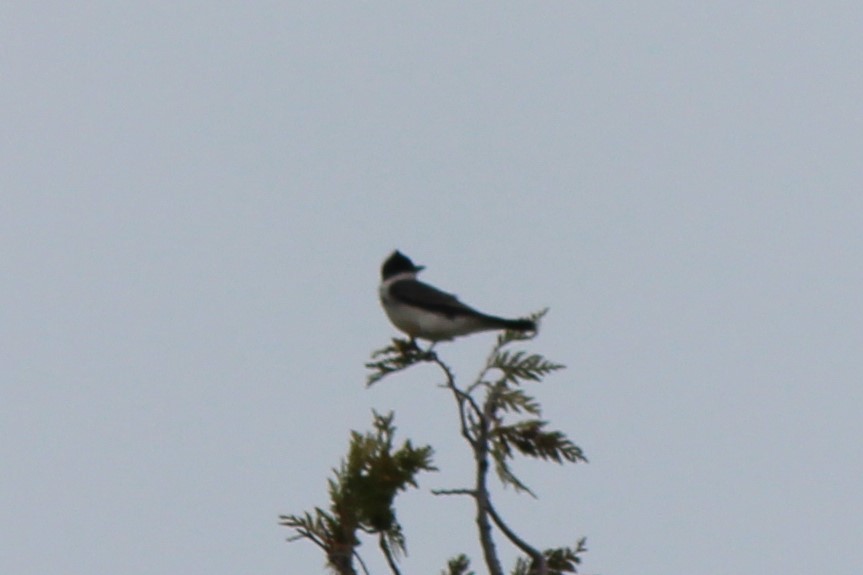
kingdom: Animalia
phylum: Chordata
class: Aves
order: Passeriformes
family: Tyrannidae
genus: Tyrannus
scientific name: Tyrannus tyrannus
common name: Eastern kingbird
